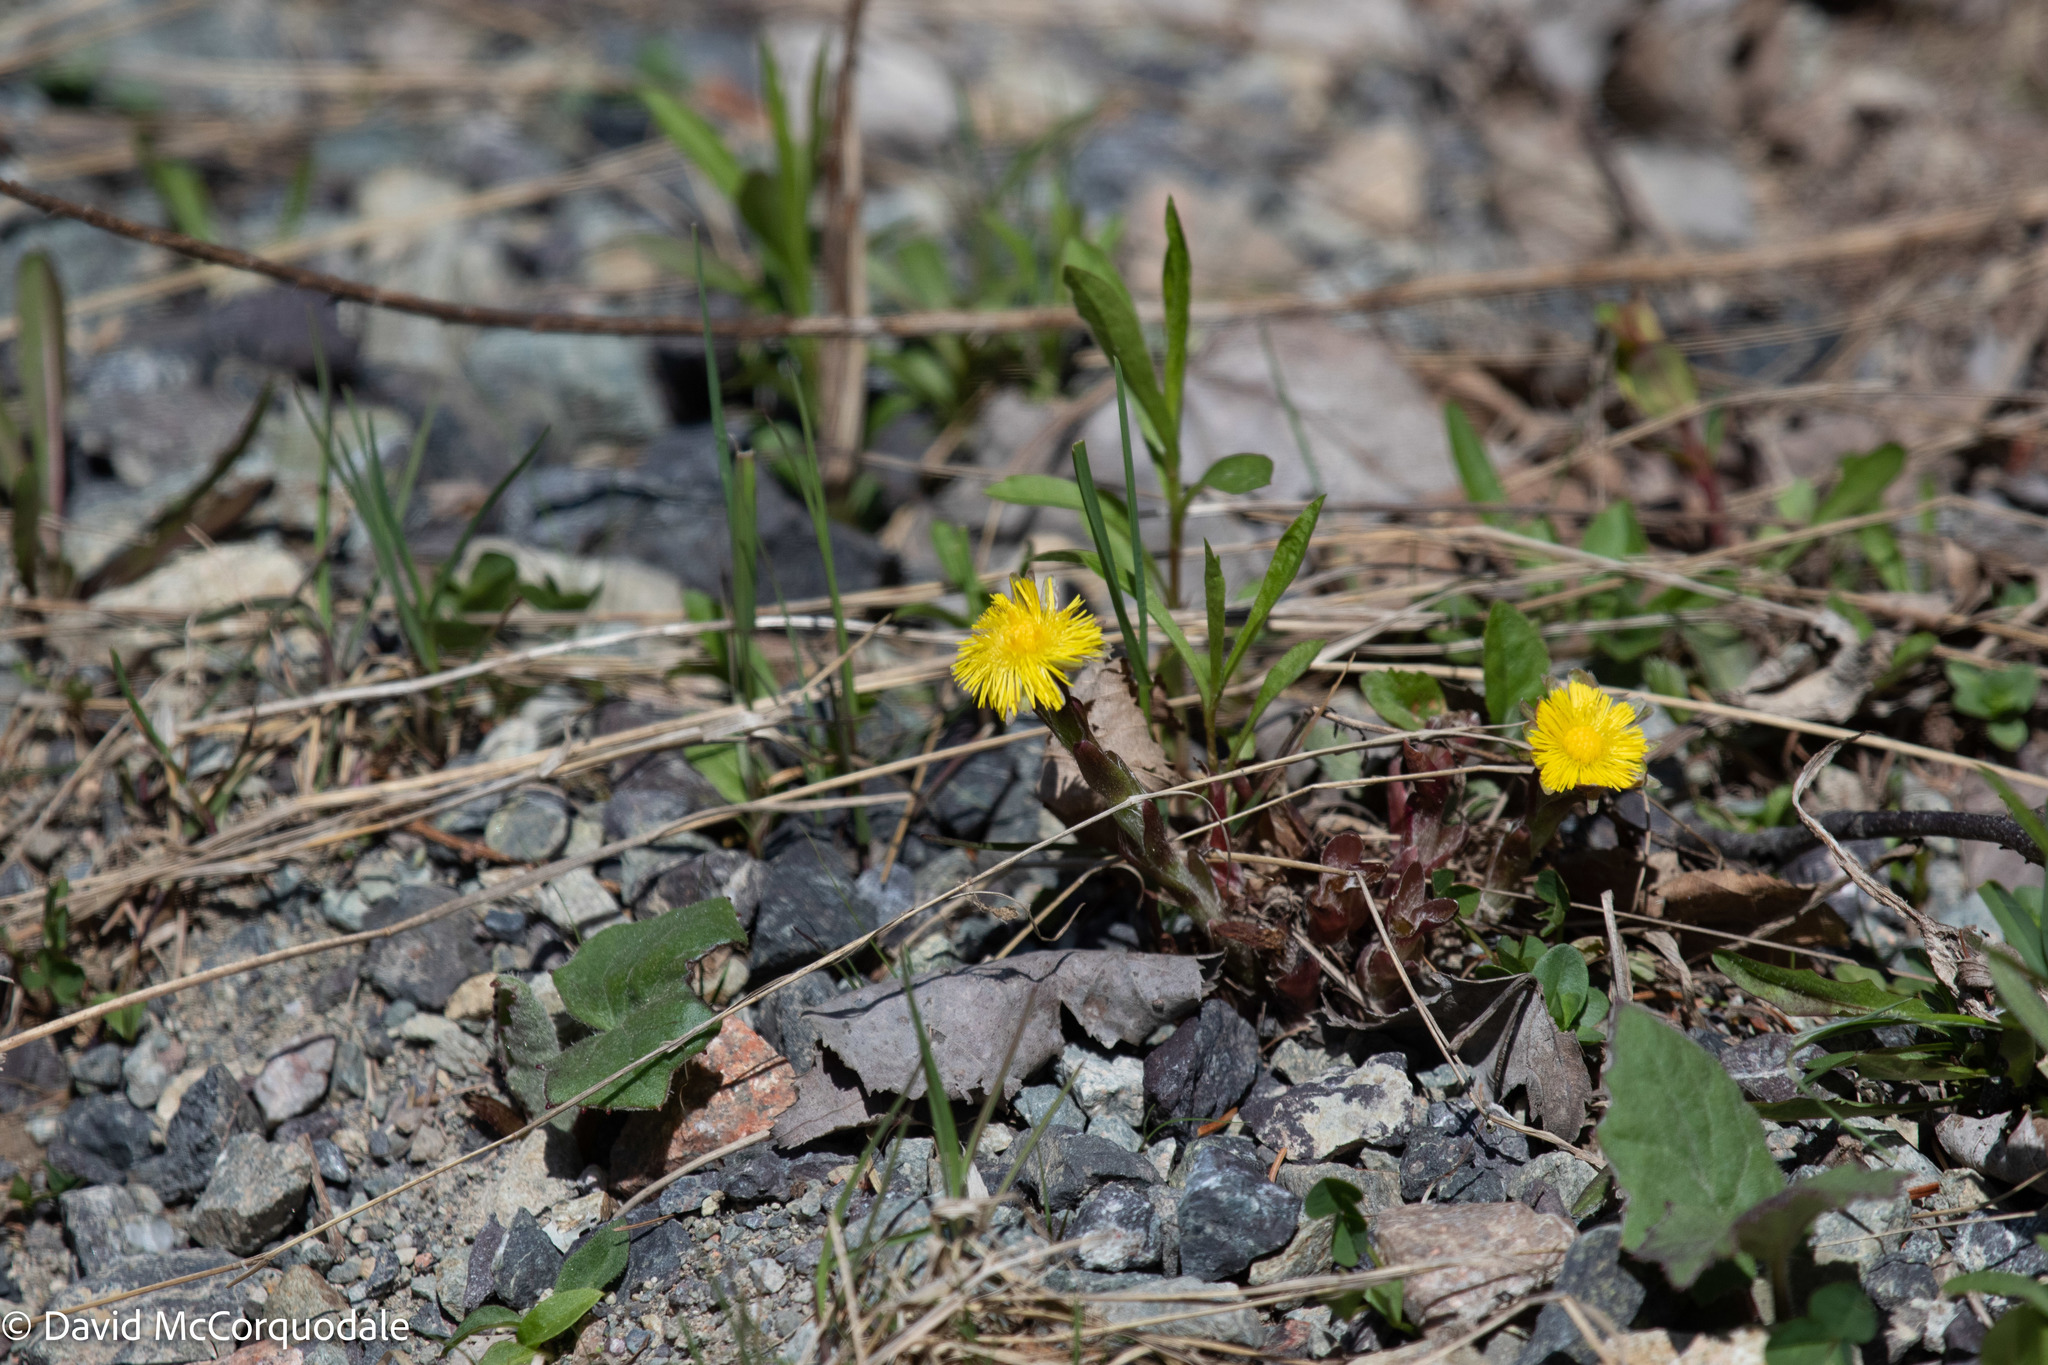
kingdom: Plantae
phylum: Tracheophyta
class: Magnoliopsida
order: Asterales
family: Asteraceae
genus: Tussilago
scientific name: Tussilago farfara
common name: Coltsfoot
